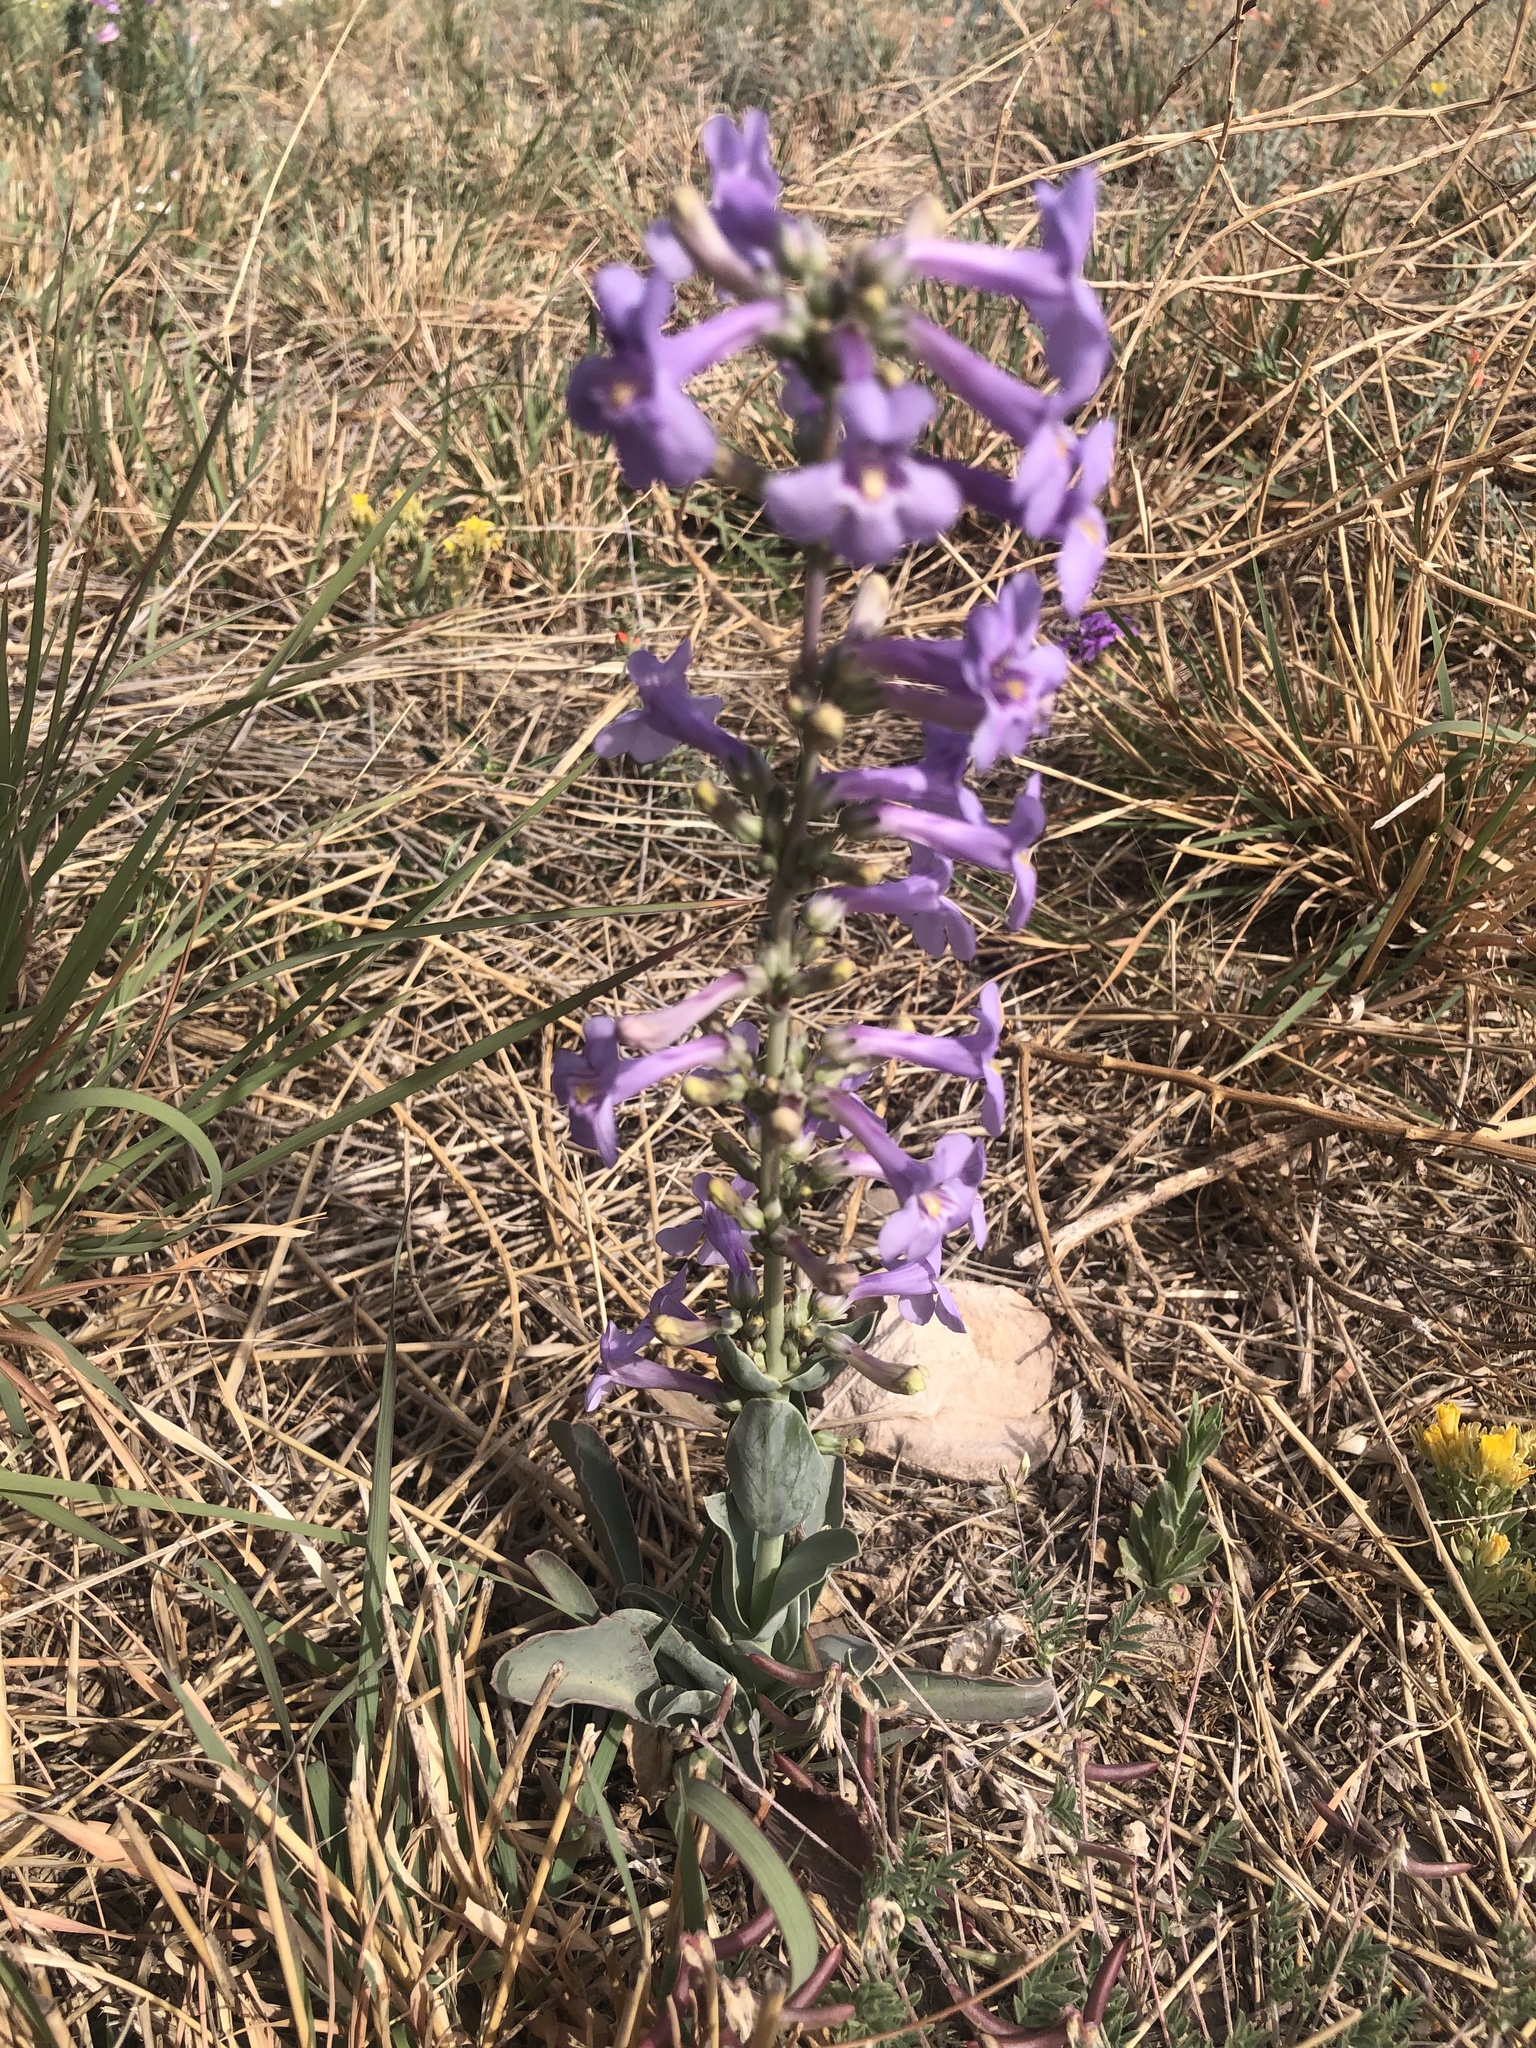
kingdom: Plantae
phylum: Tracheophyta
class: Magnoliopsida
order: Lamiales
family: Plantaginaceae
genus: Penstemon
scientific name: Penstemon fendleri
